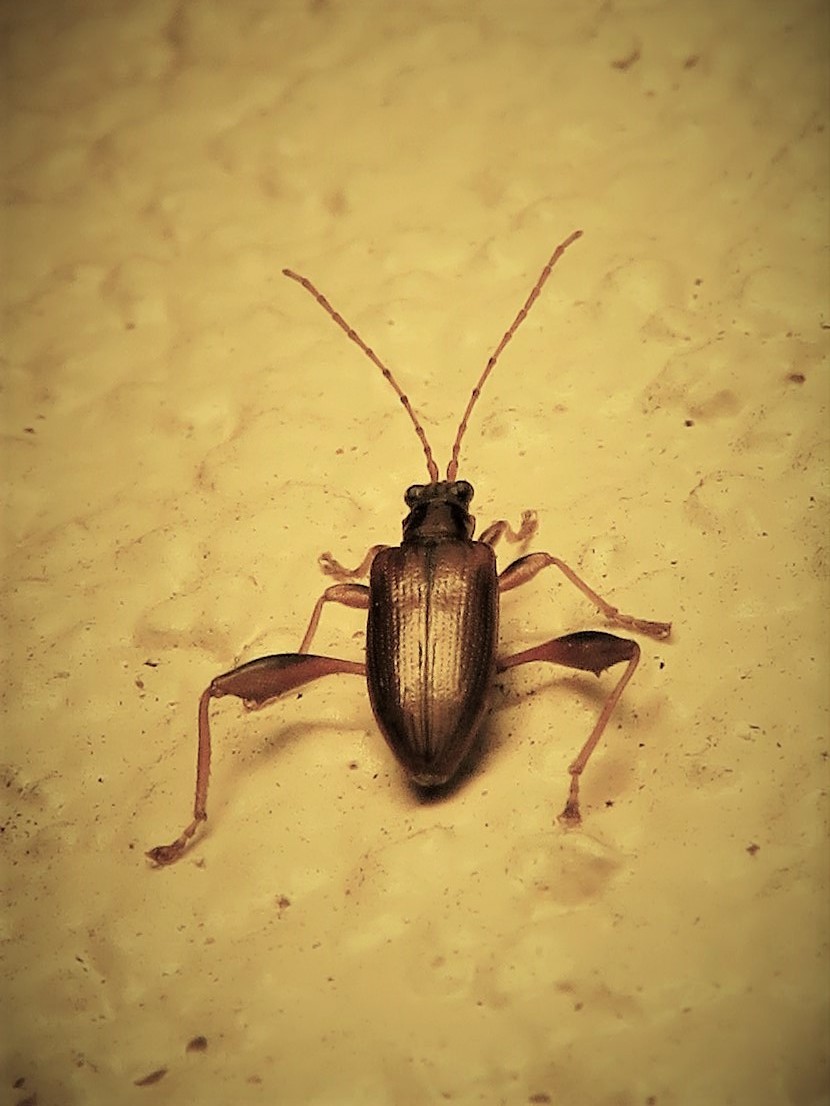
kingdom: Animalia
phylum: Arthropoda
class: Insecta
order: Coleoptera
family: Chrysomelidae
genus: Donacia
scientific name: Donacia texana
